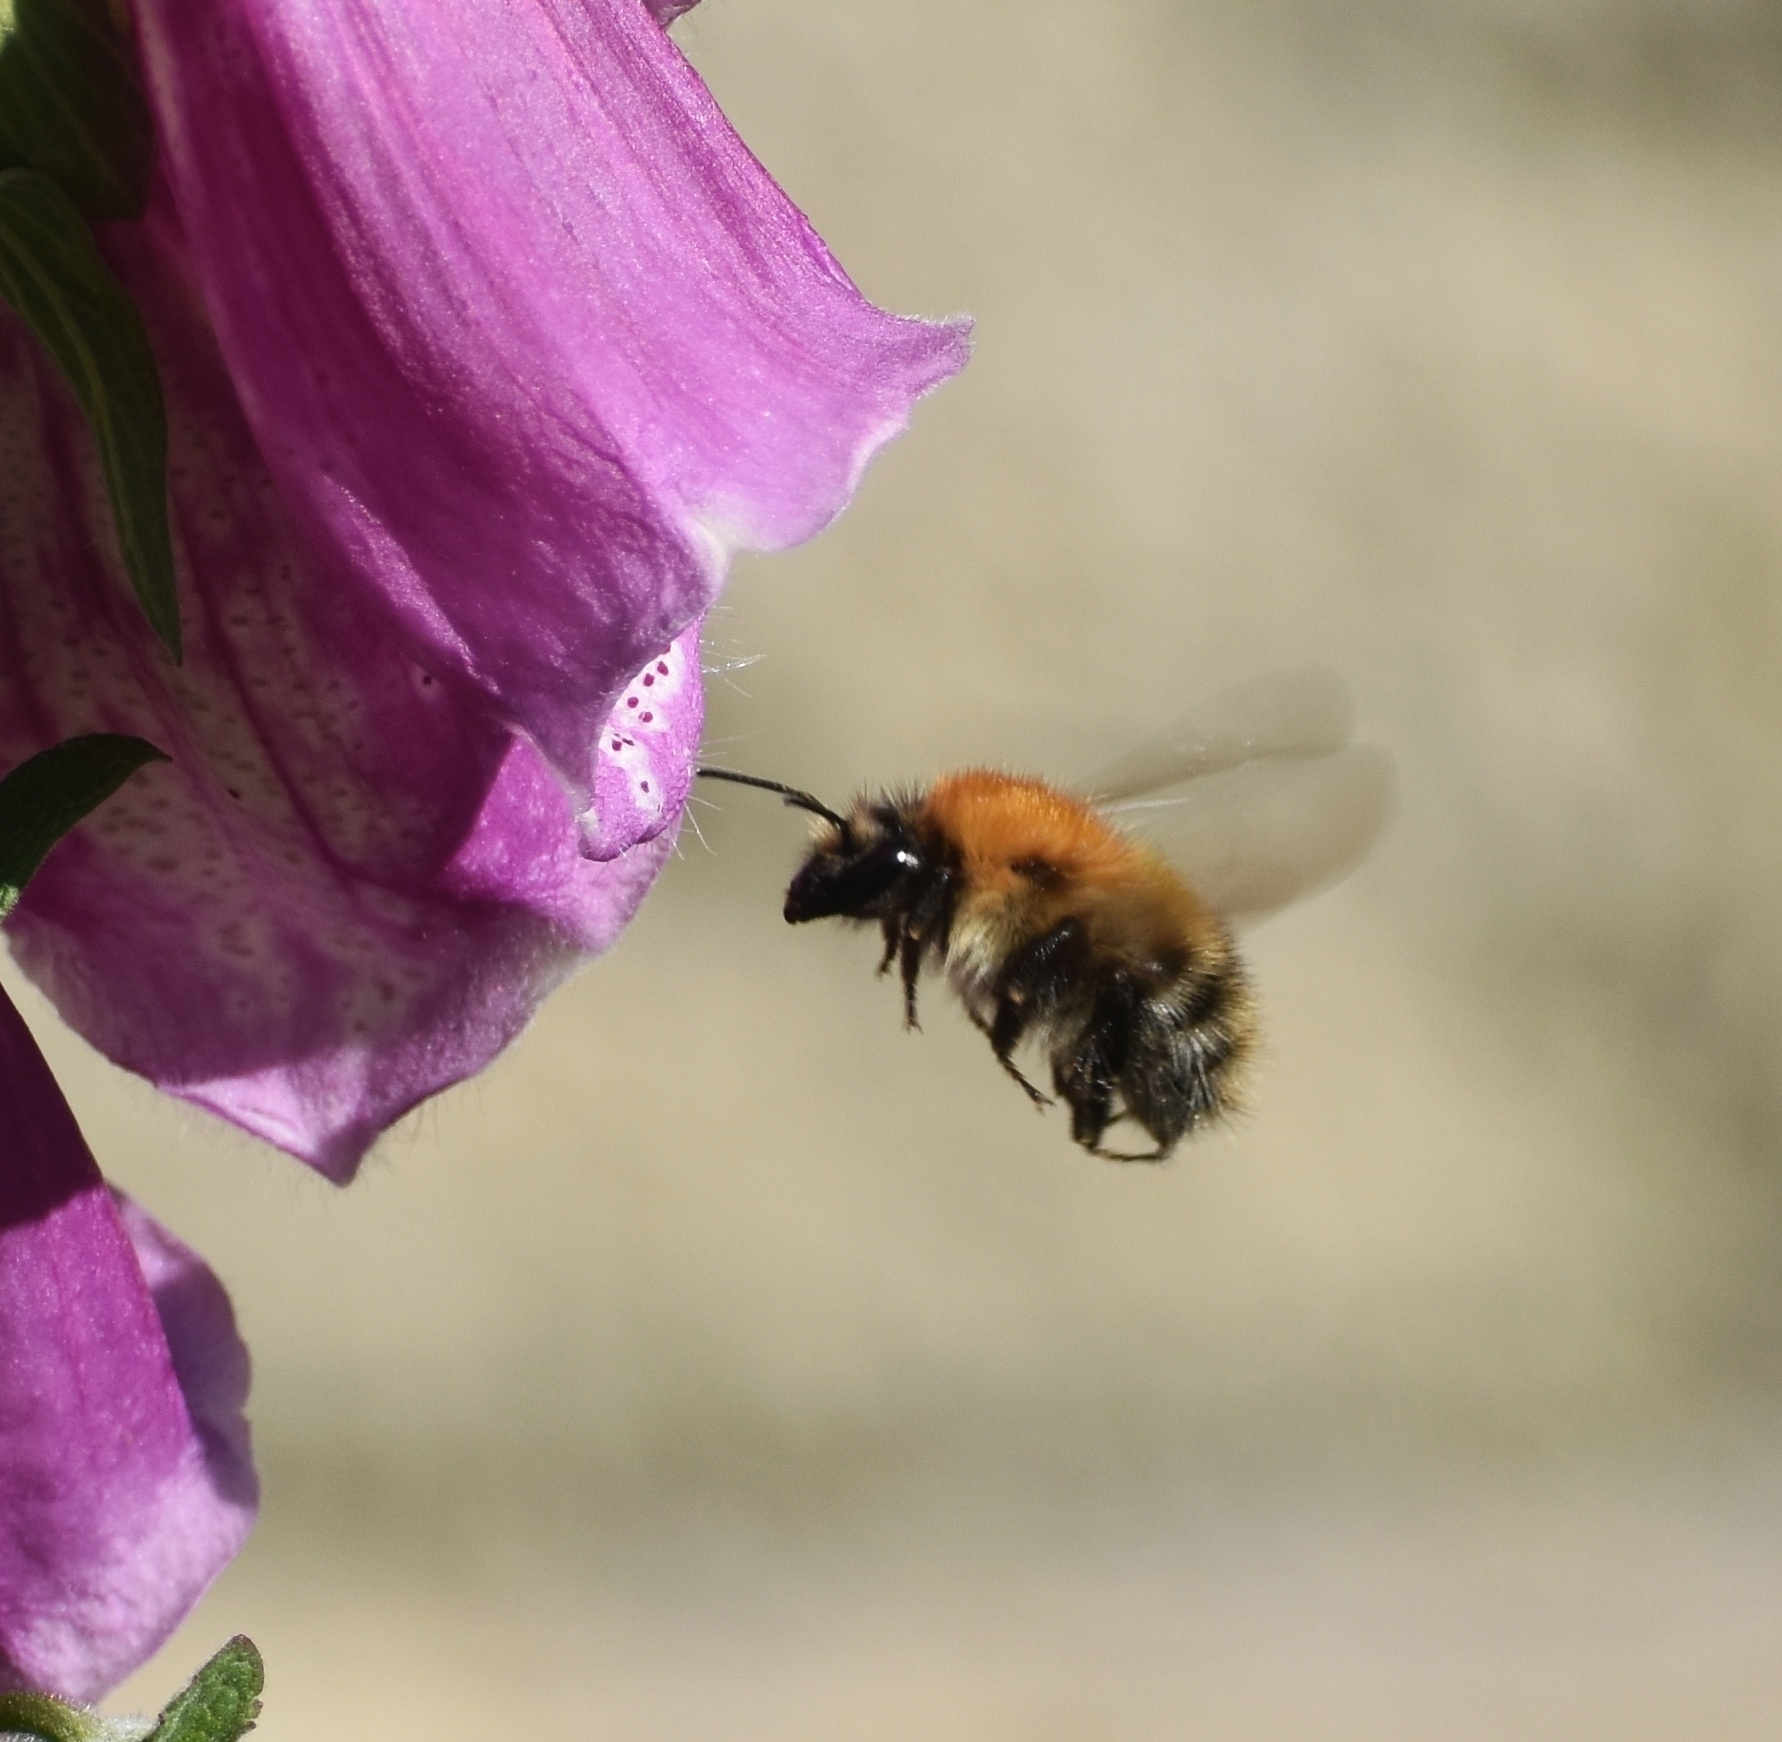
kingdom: Animalia
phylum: Arthropoda
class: Insecta
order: Hymenoptera
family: Apidae
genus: Bombus
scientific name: Bombus pascuorum
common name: Common carder bee
